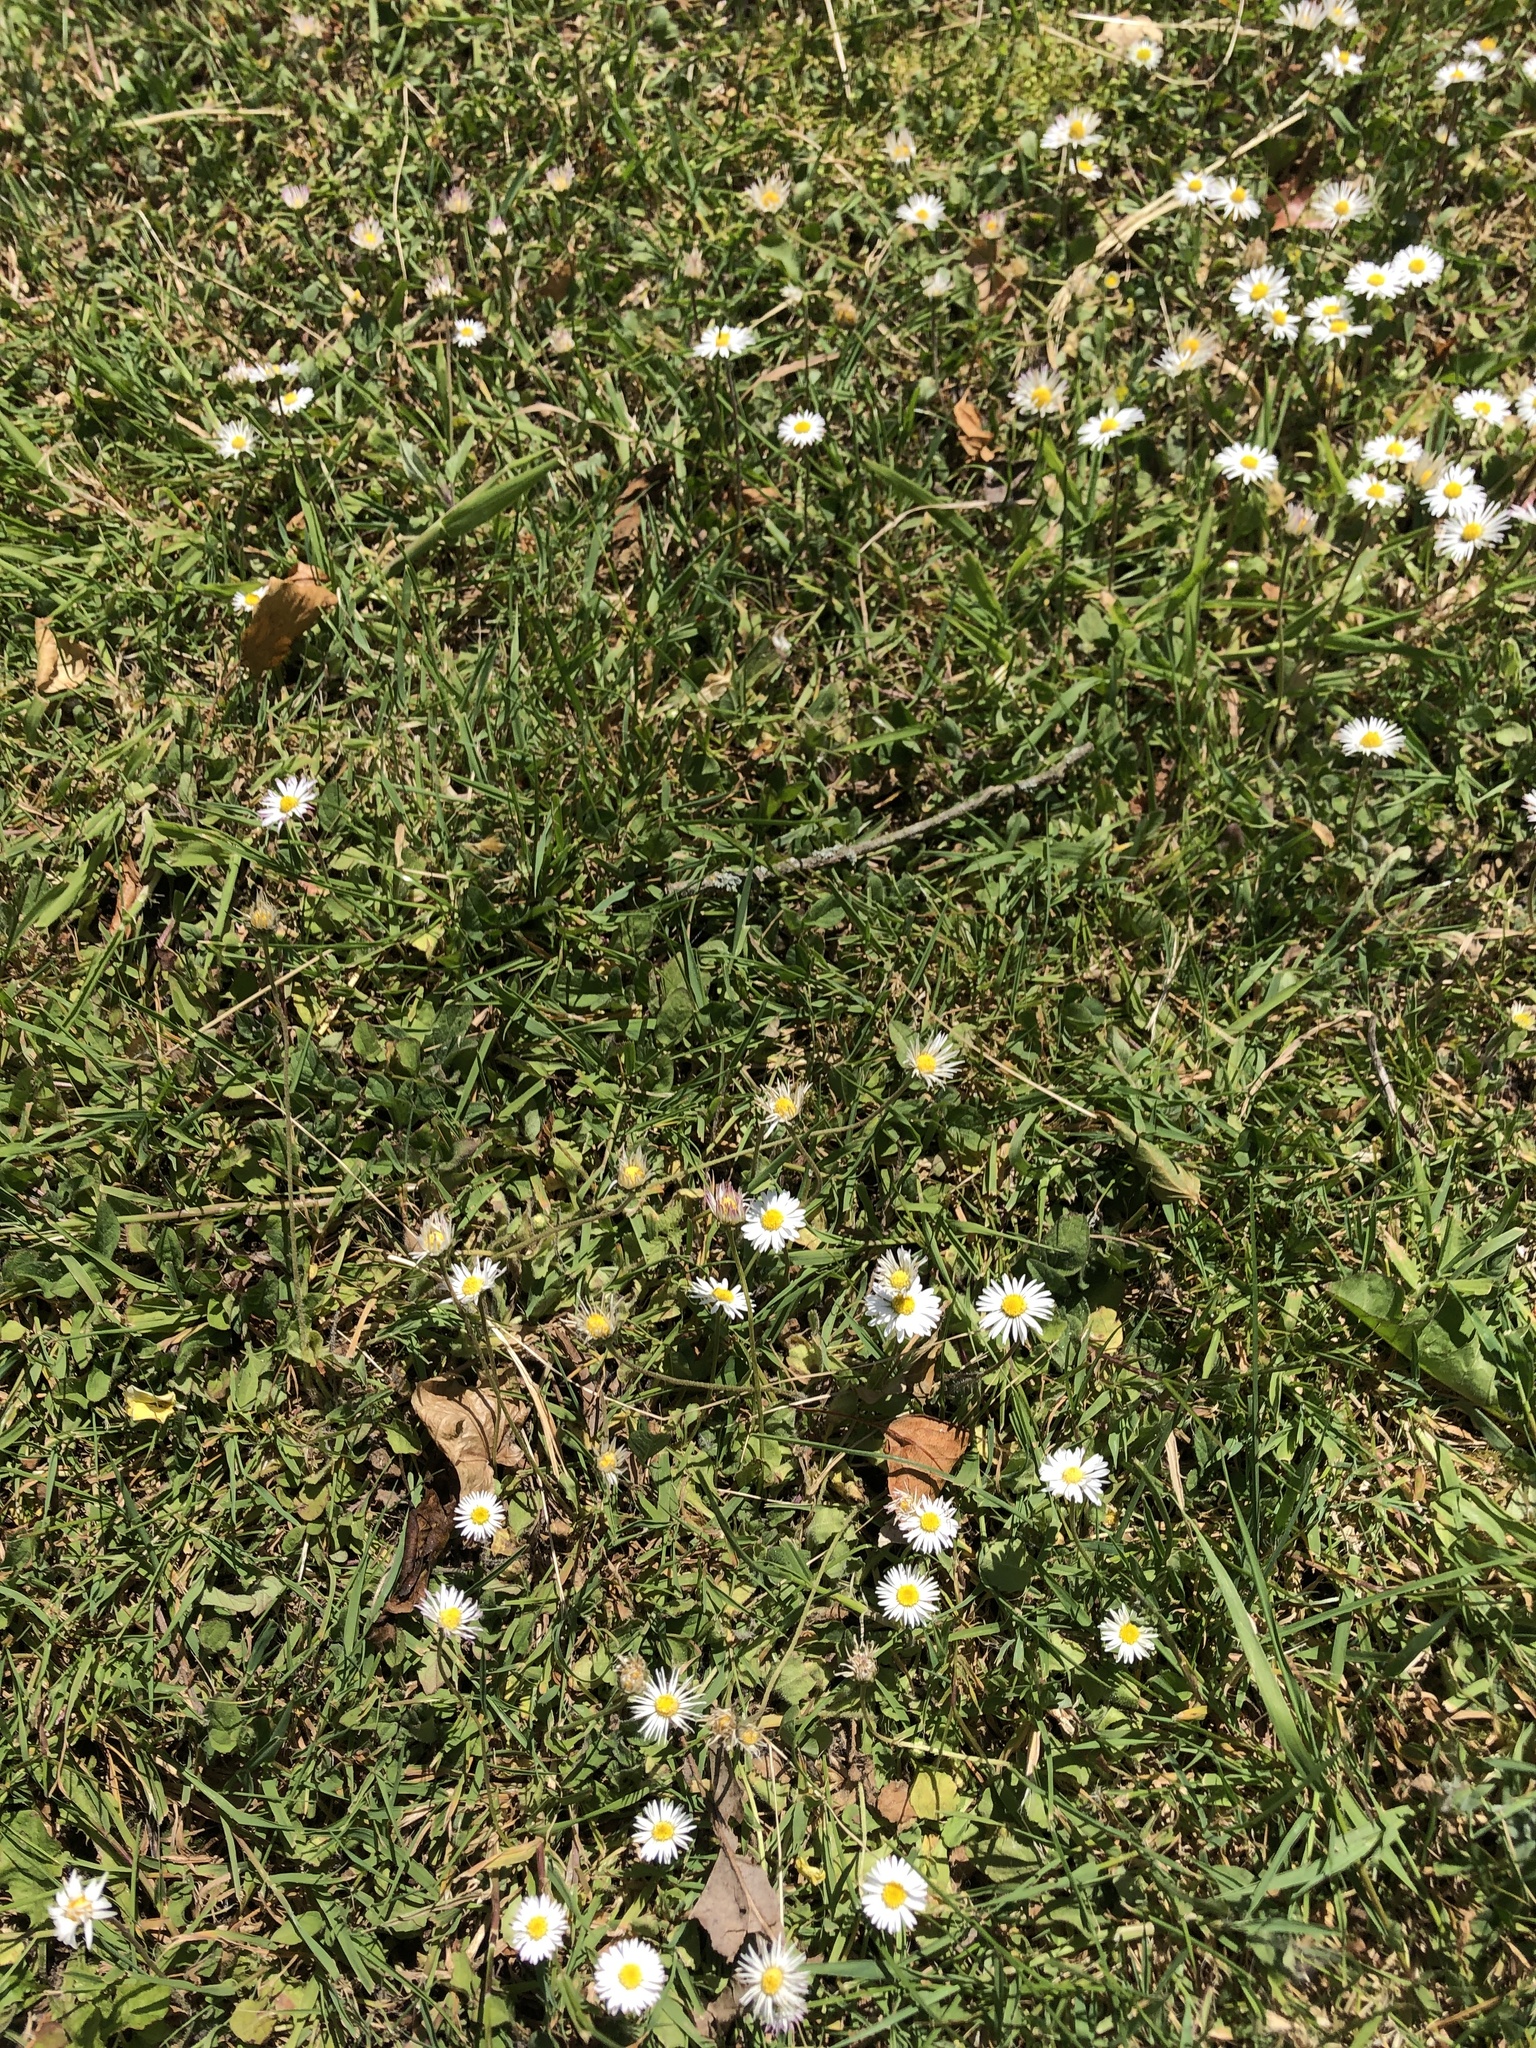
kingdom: Plantae
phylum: Tracheophyta
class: Magnoliopsida
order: Asterales
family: Asteraceae
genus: Bellis
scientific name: Bellis perennis
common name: Lawndaisy
